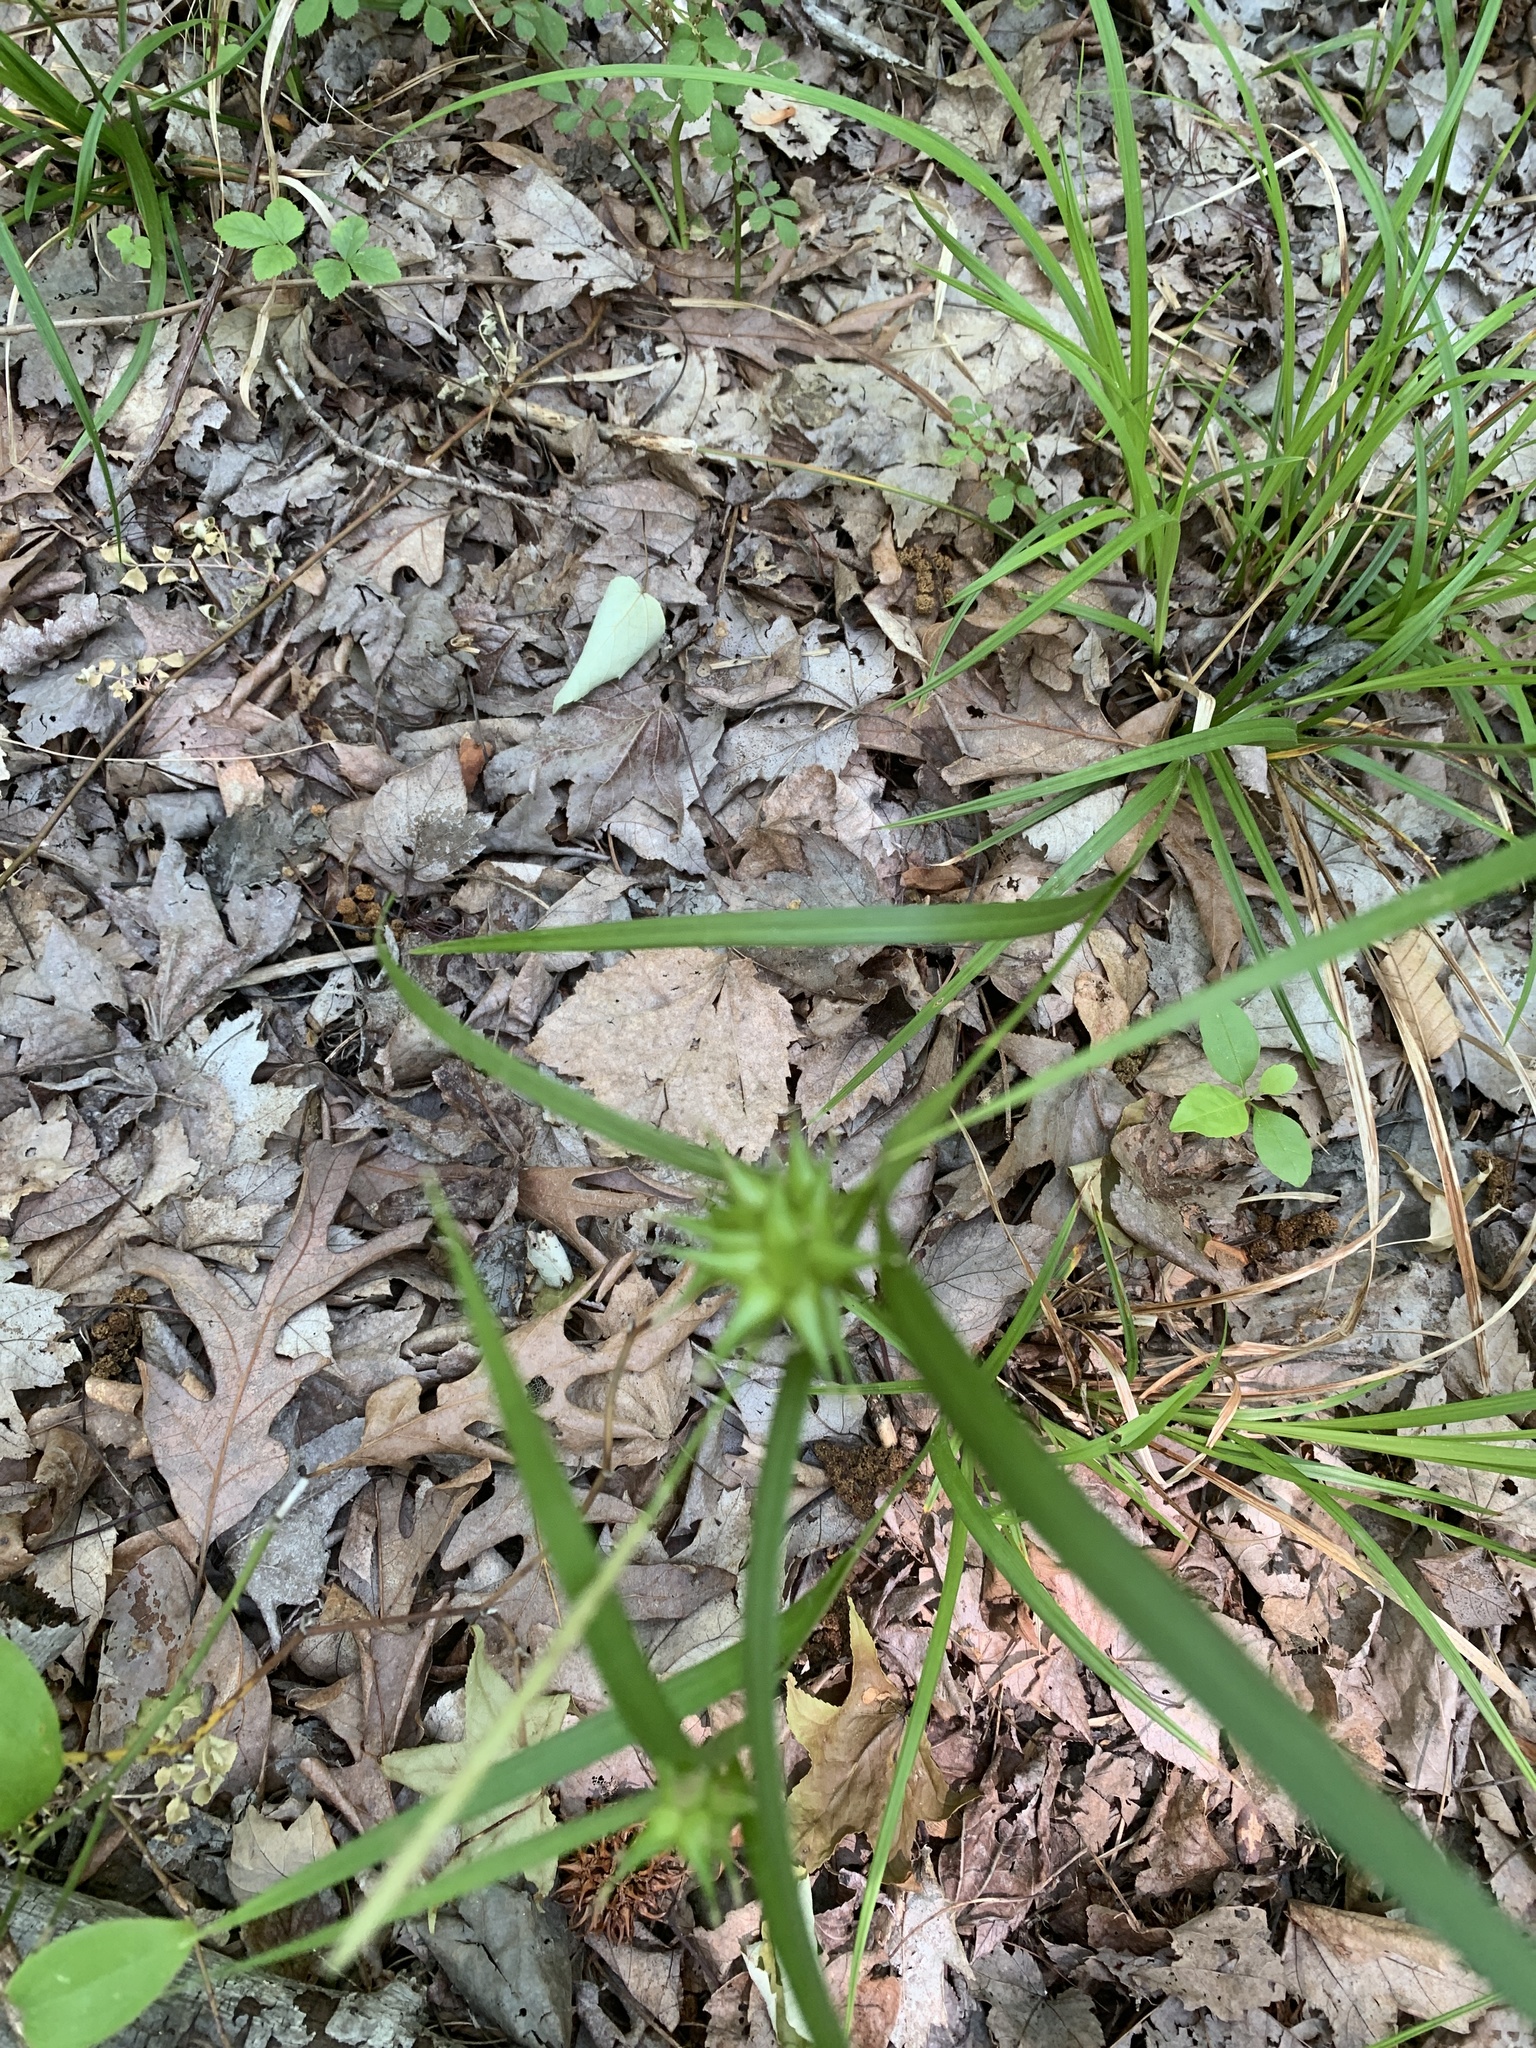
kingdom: Plantae
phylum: Tracheophyta
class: Liliopsida
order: Poales
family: Cyperaceae
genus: Carex
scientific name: Carex intumescens
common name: Greater bladder sedge
